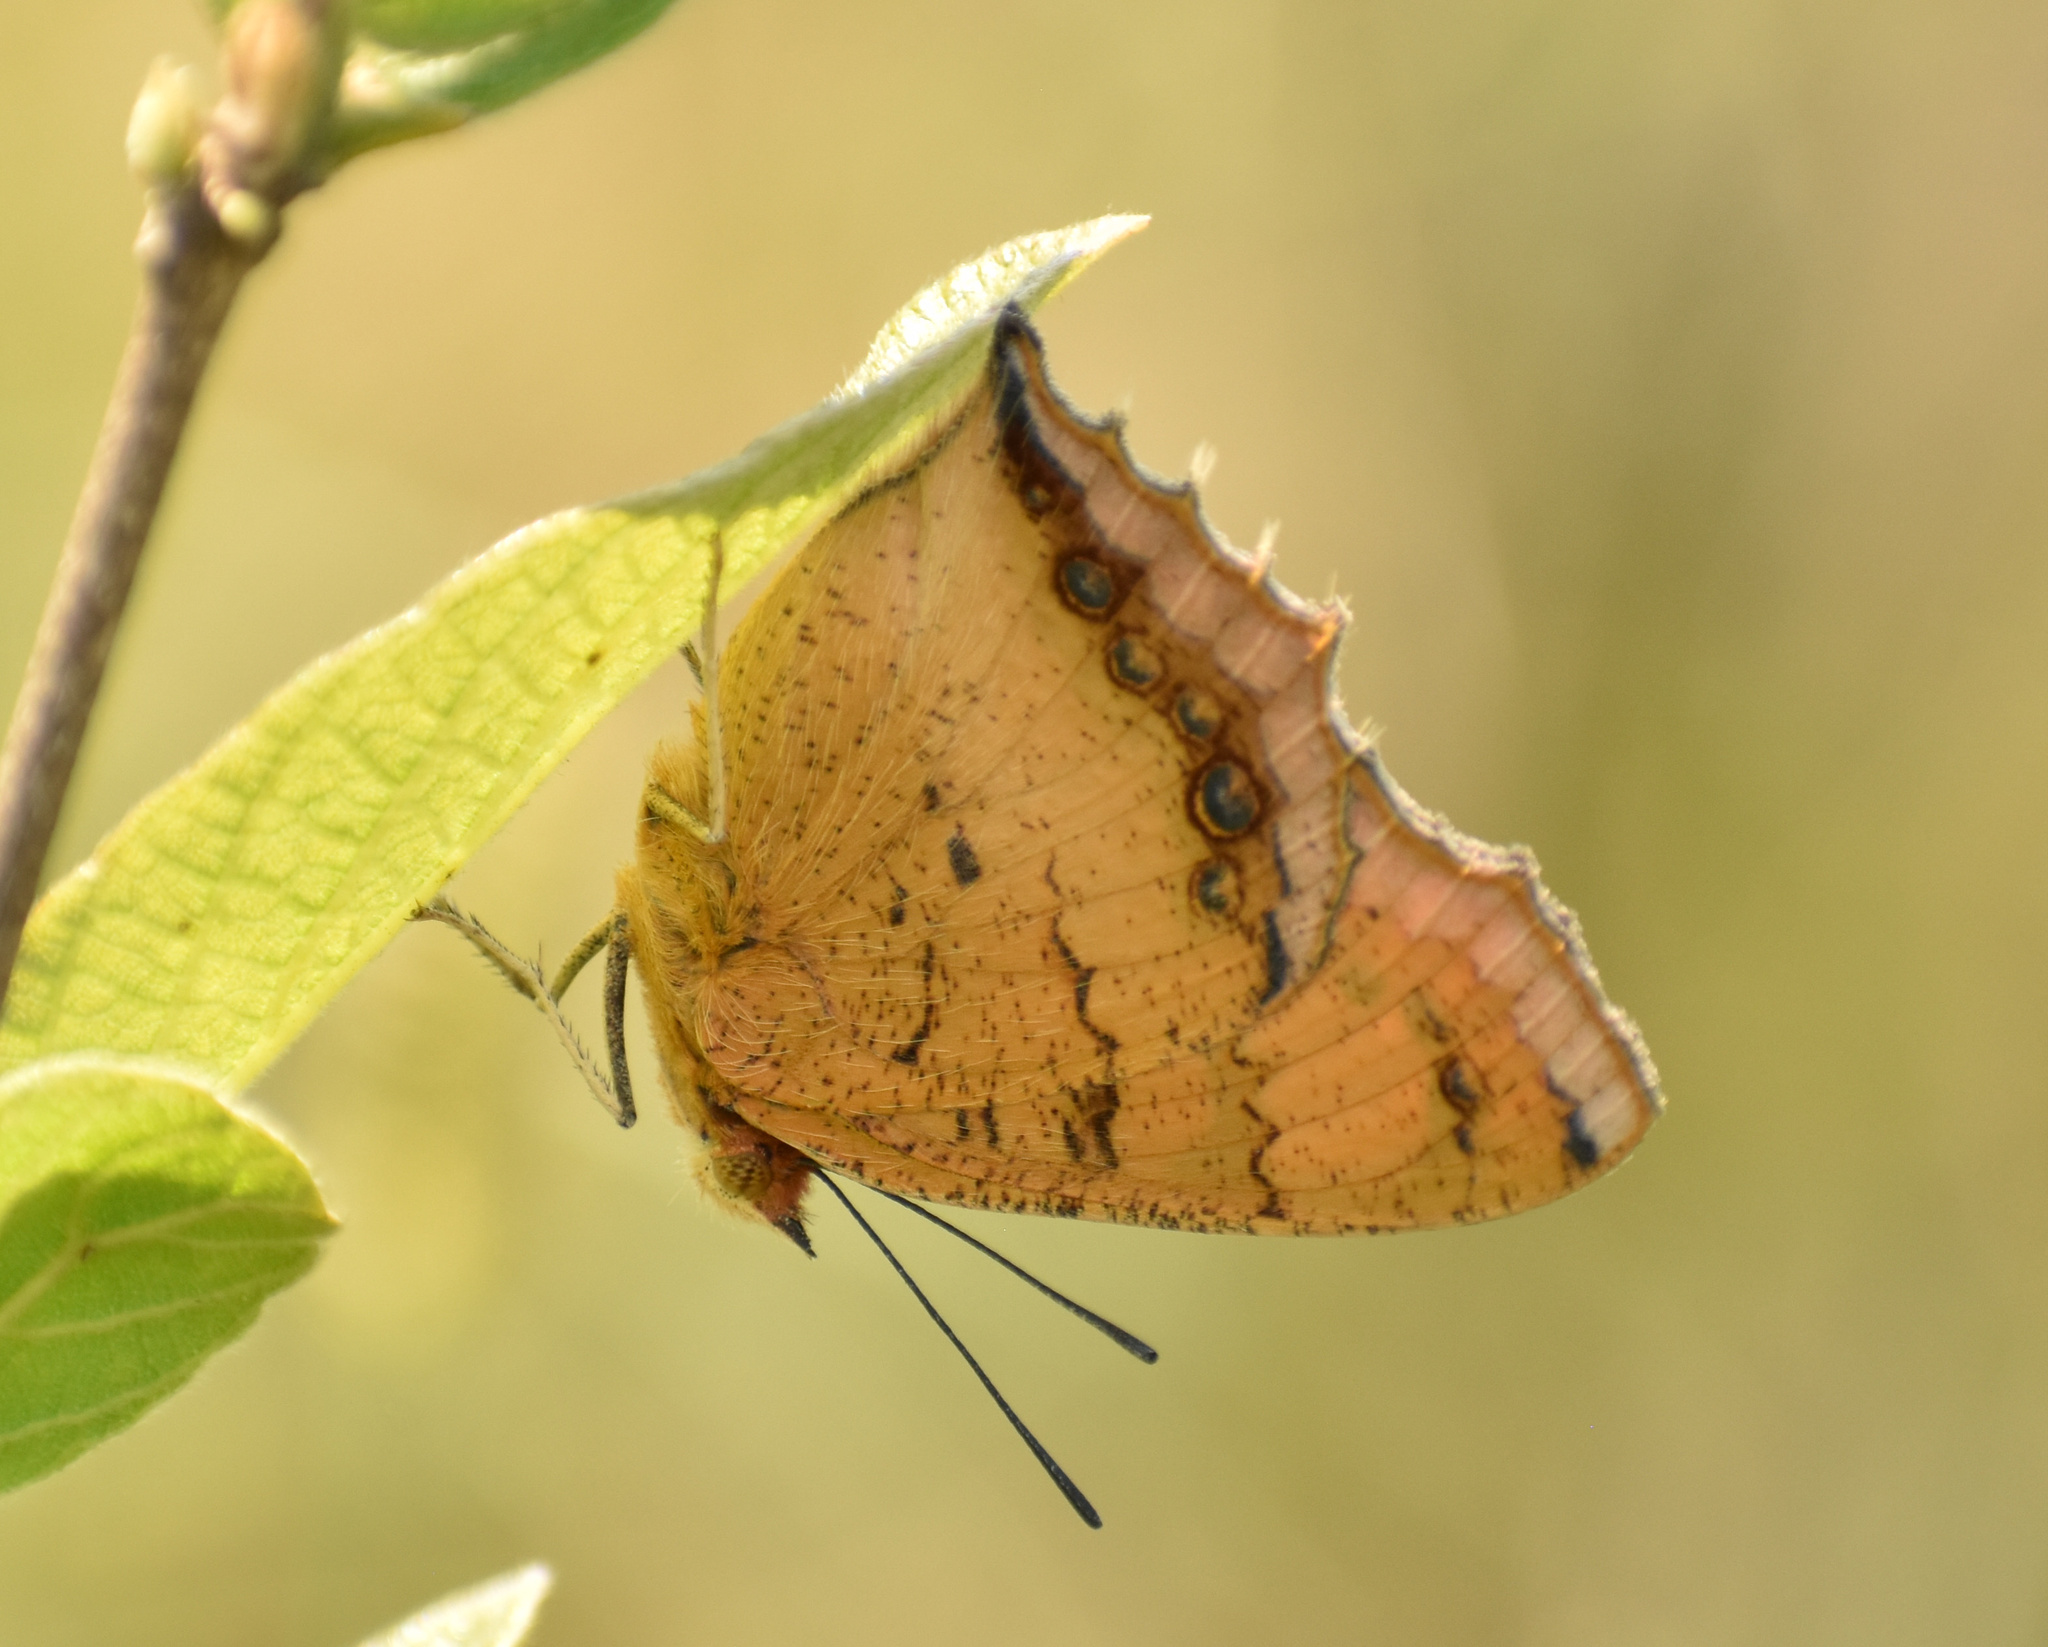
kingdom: Animalia
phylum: Arthropoda
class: Insecta
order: Lepidoptera
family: Nymphalidae
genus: Catacroptera
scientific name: Catacroptera cloanthe
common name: Pirate
